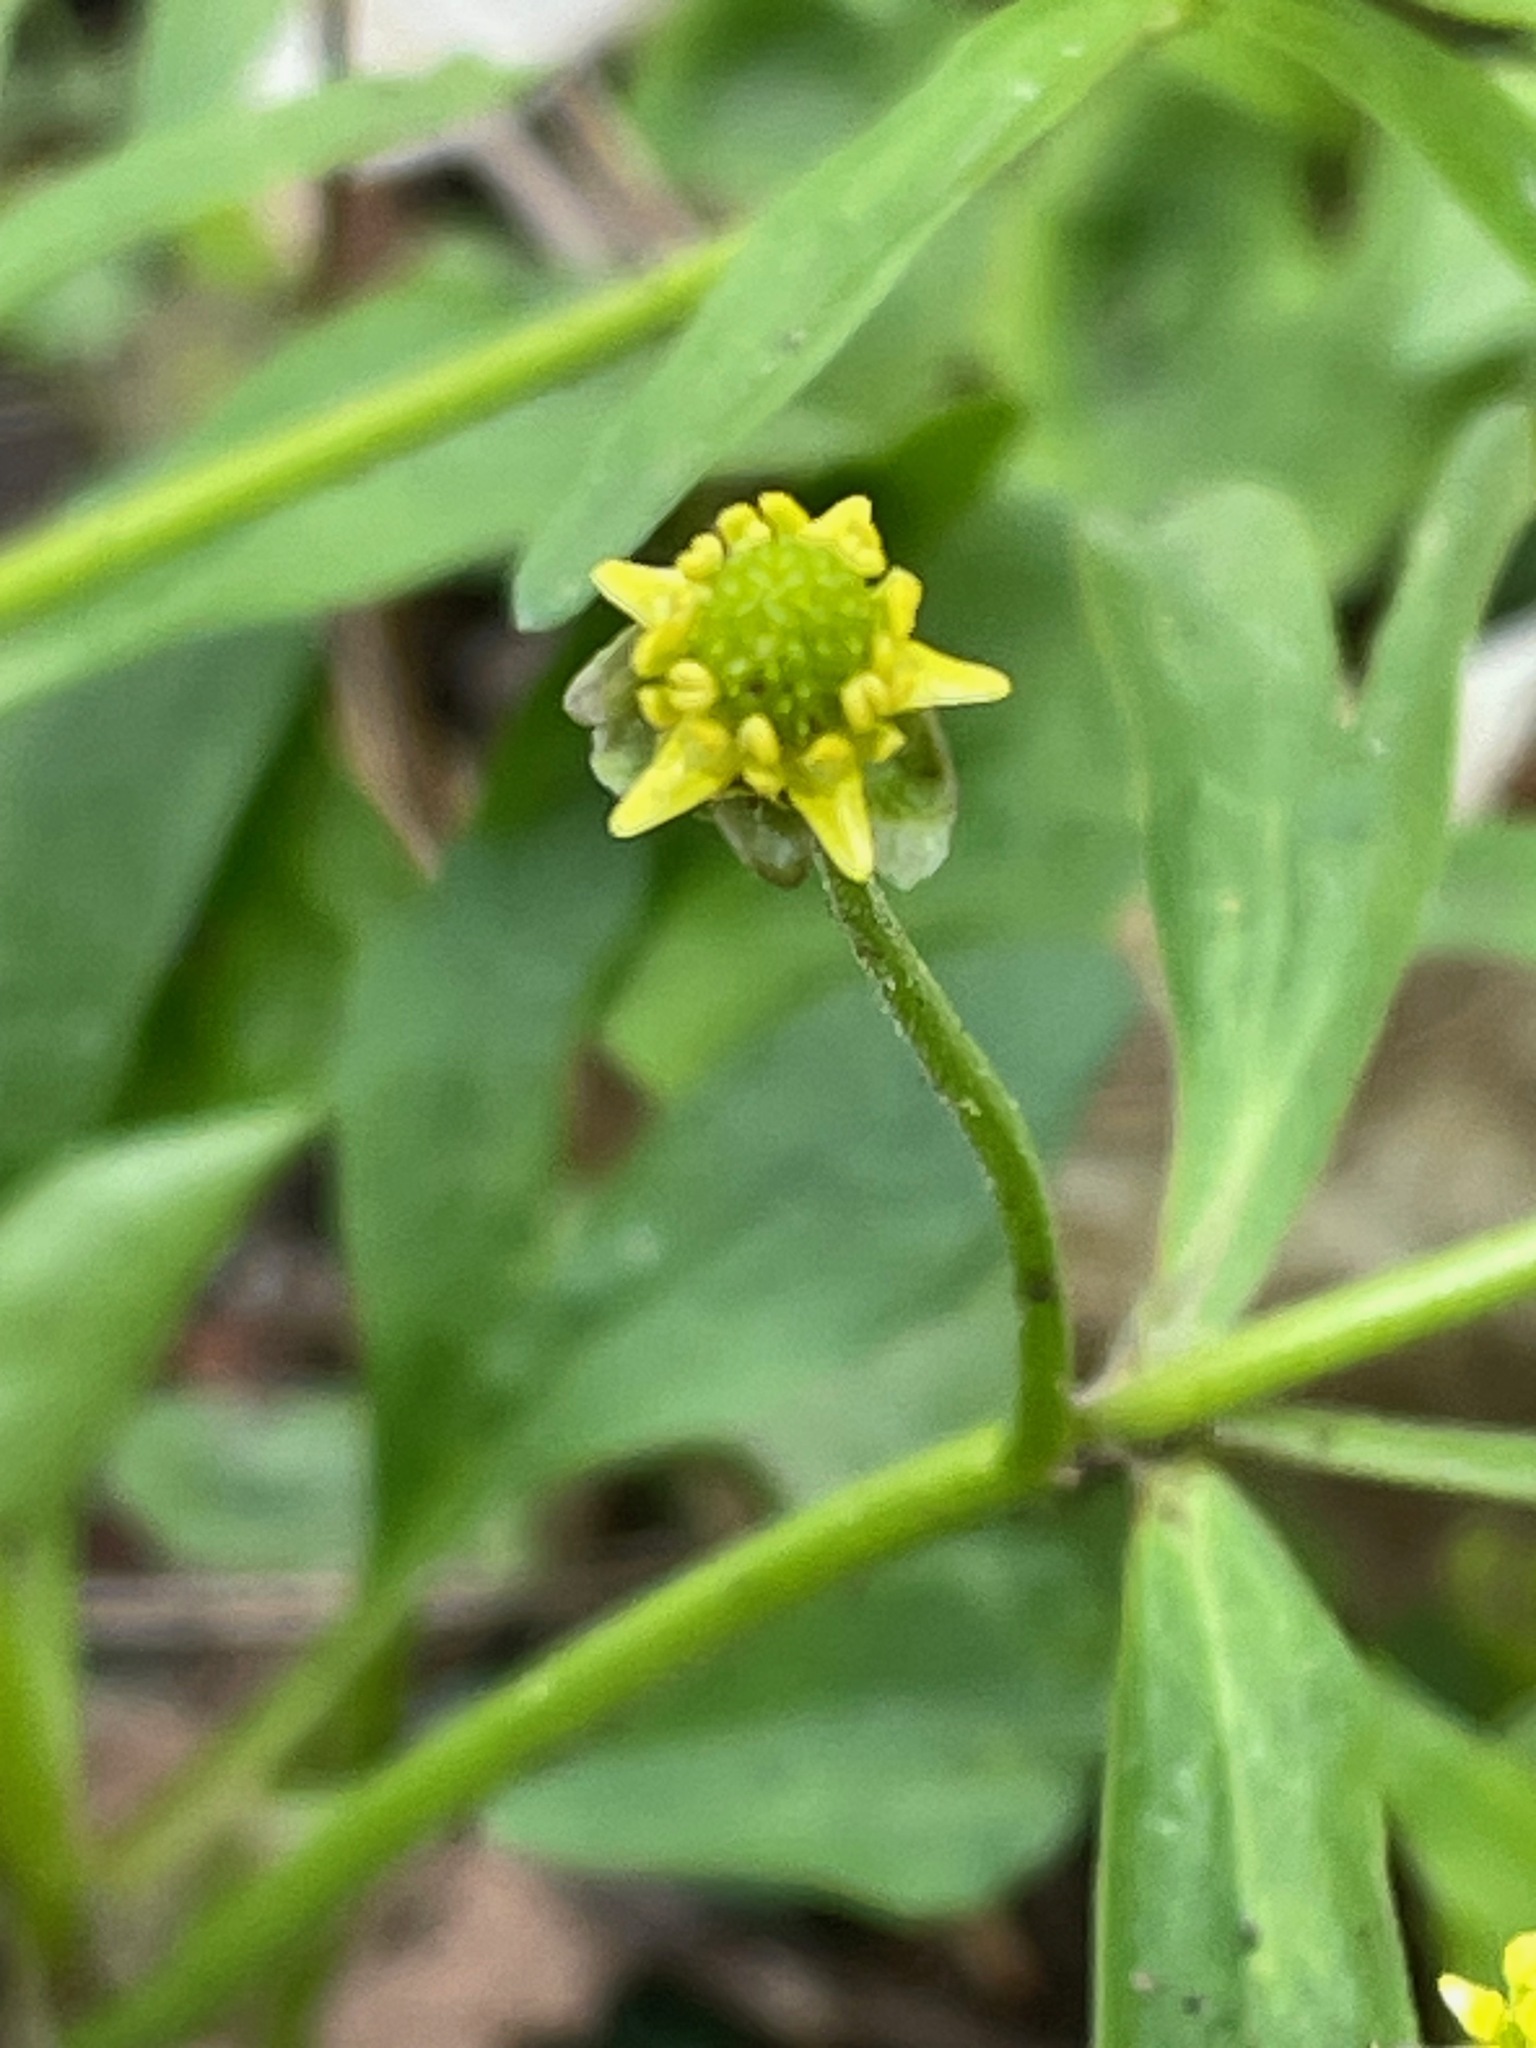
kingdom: Plantae
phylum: Tracheophyta
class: Magnoliopsida
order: Ranunculales
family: Ranunculaceae
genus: Ranunculus
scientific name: Ranunculus abortivus
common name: Early wood buttercup
